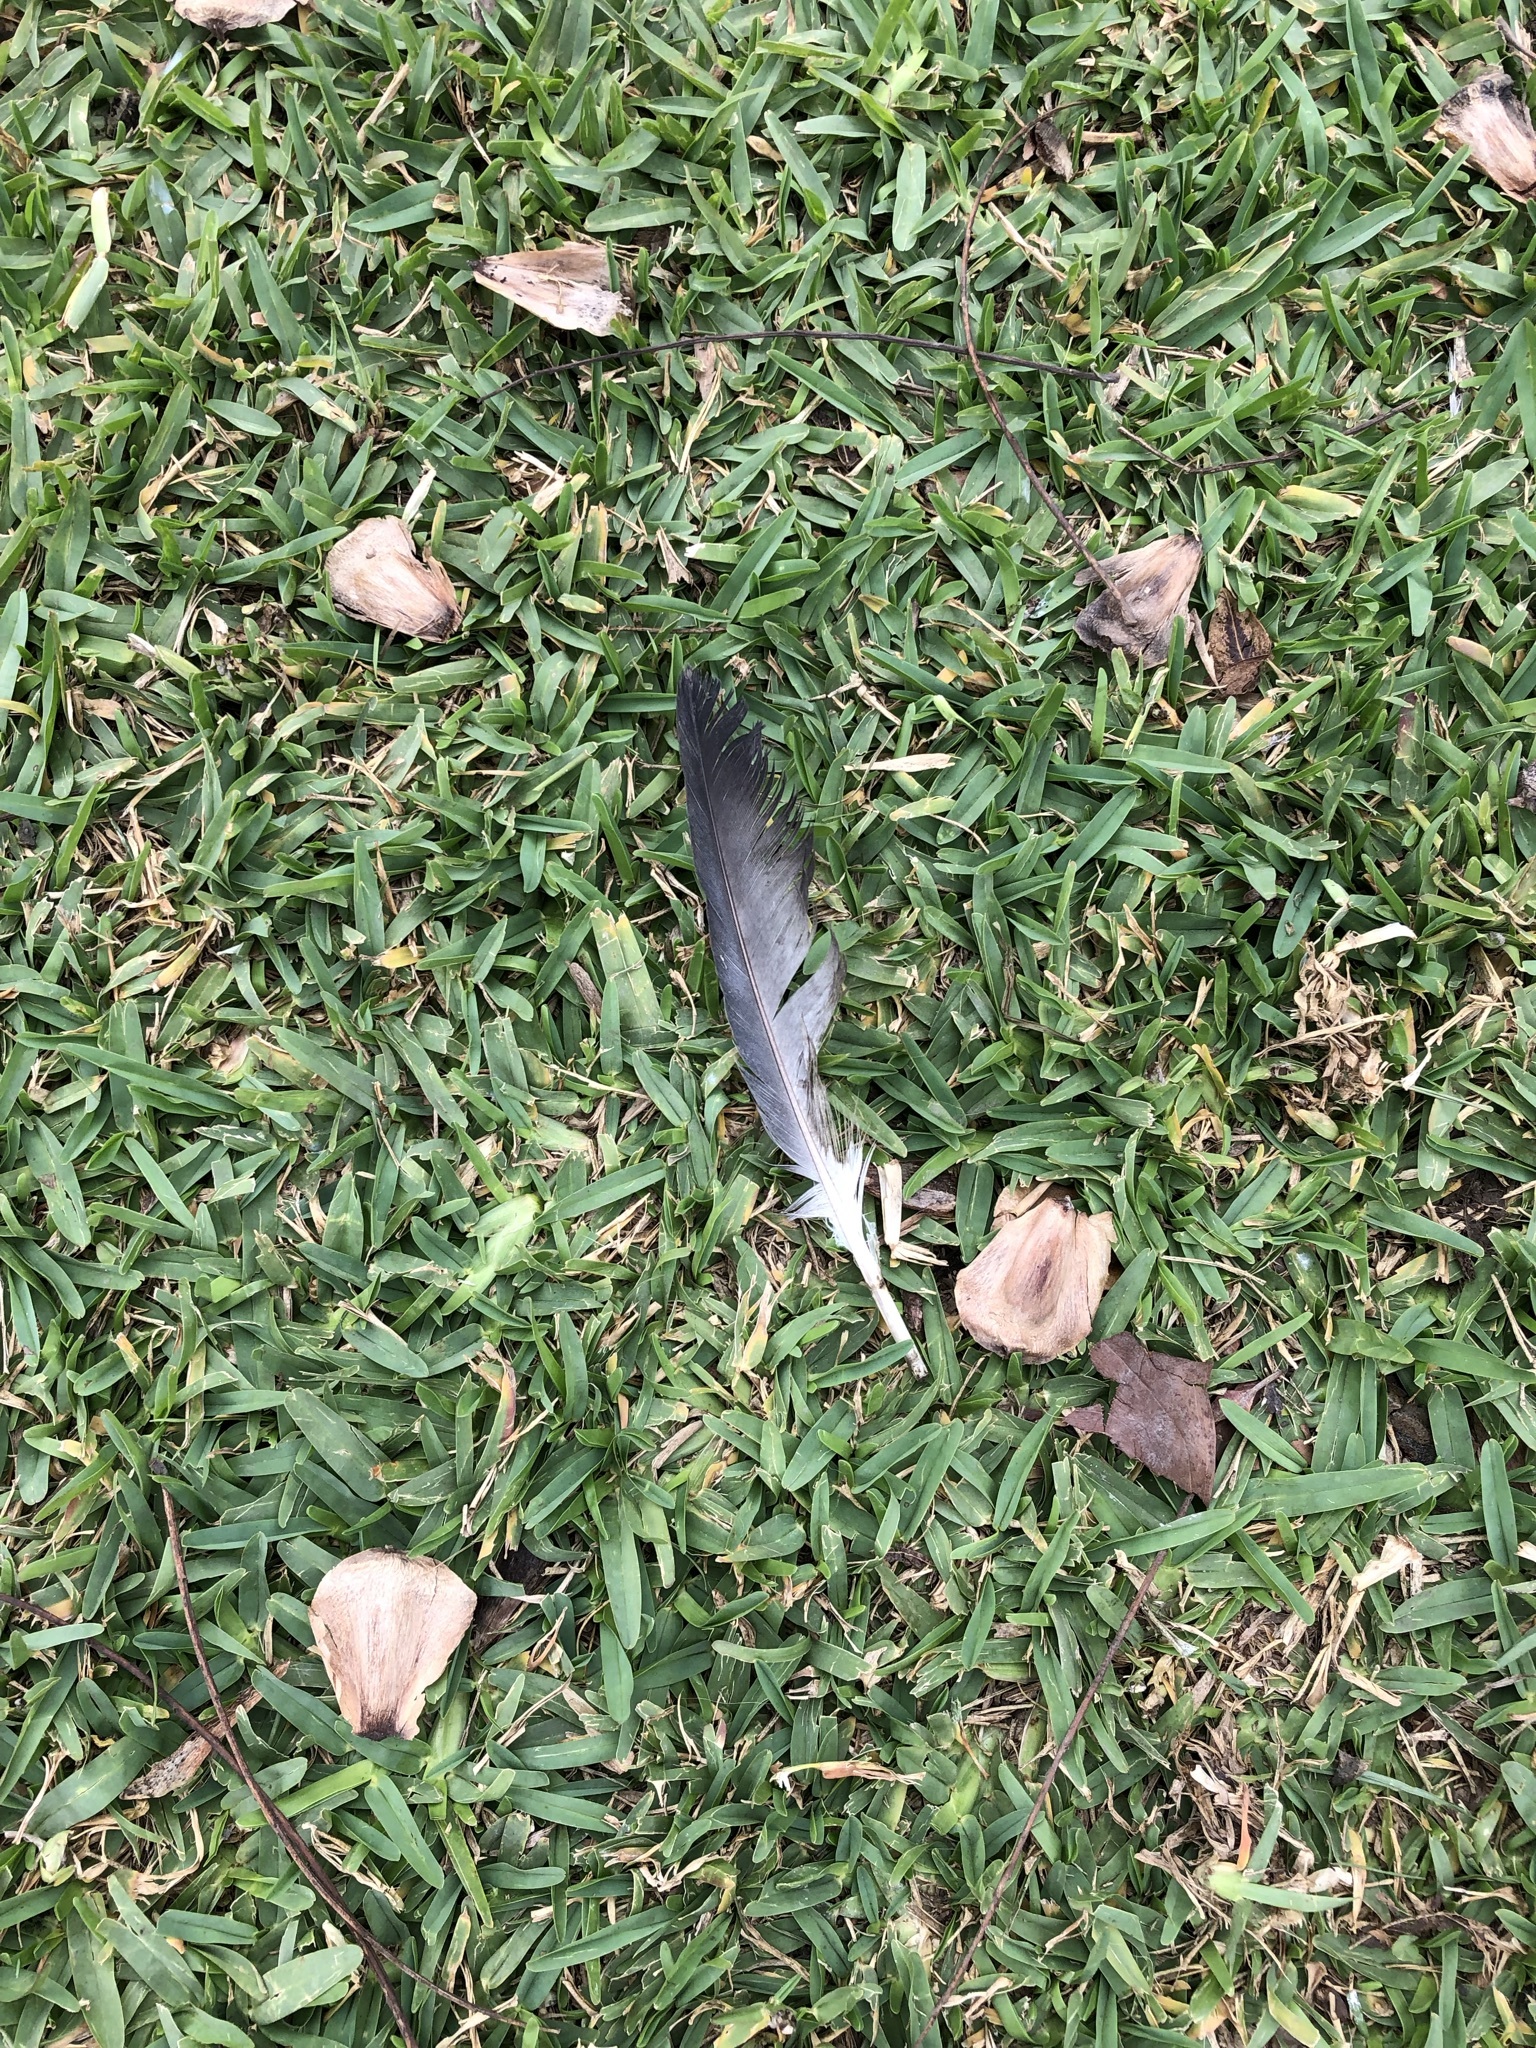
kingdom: Animalia
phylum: Chordata
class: Aves
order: Columbiformes
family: Columbidae
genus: Columba
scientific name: Columba livia
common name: Rock pigeon
